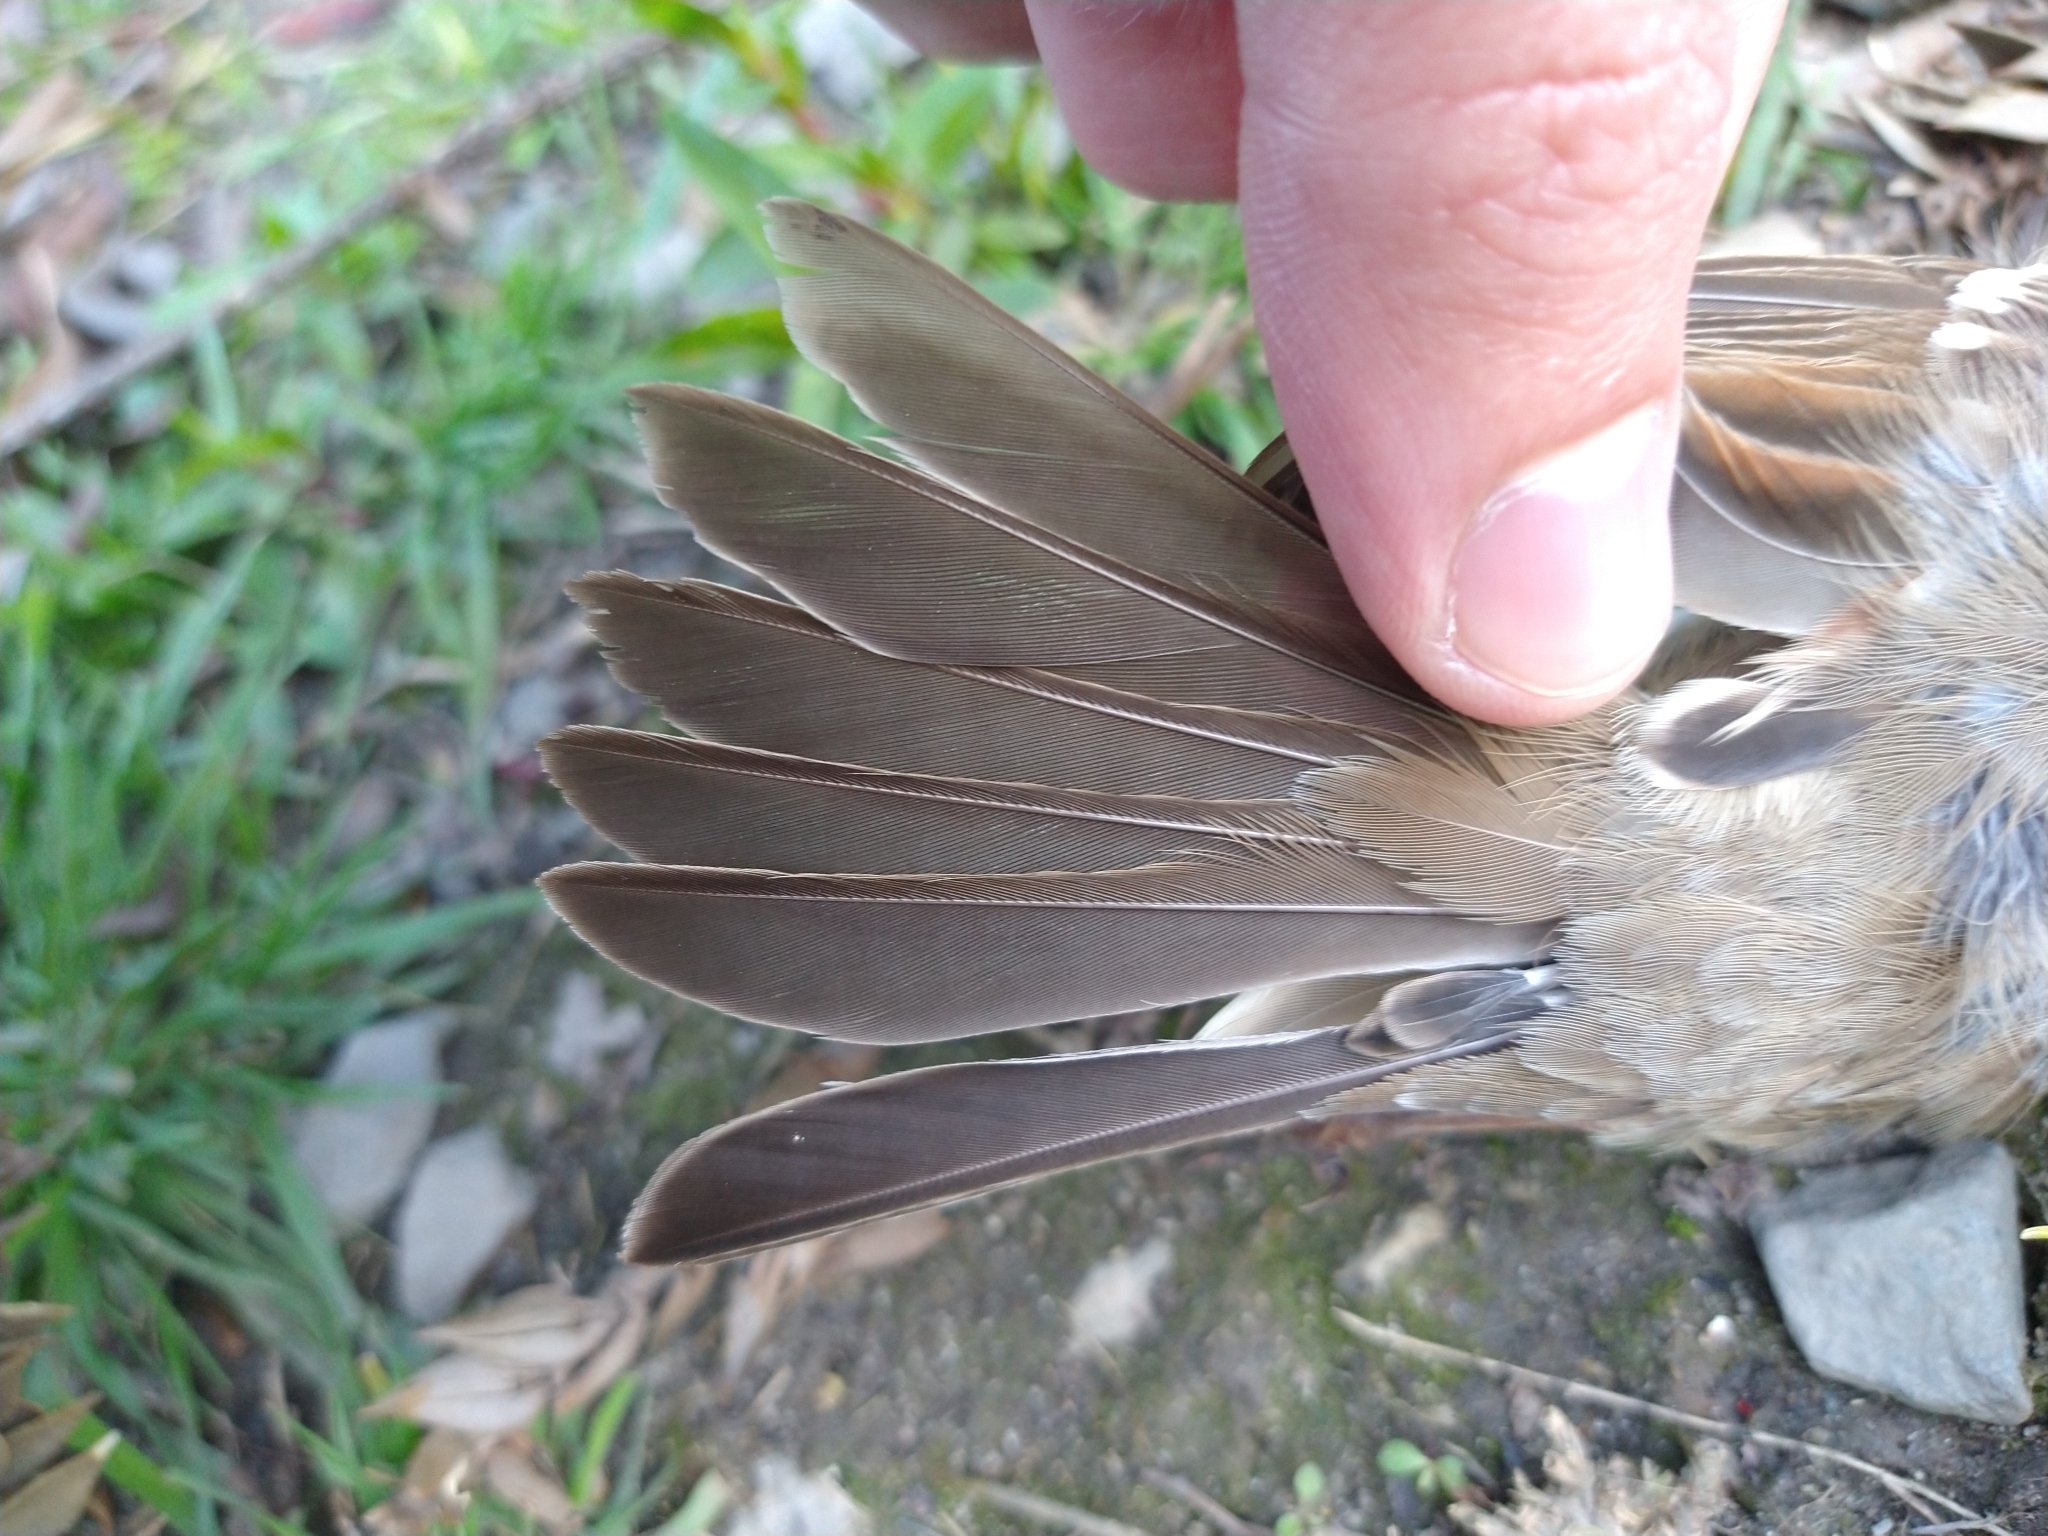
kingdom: Animalia
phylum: Chordata
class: Aves
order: Passeriformes
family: Passerellidae
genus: Zonotrichia
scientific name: Zonotrichia leucophrys
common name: White-crowned sparrow
